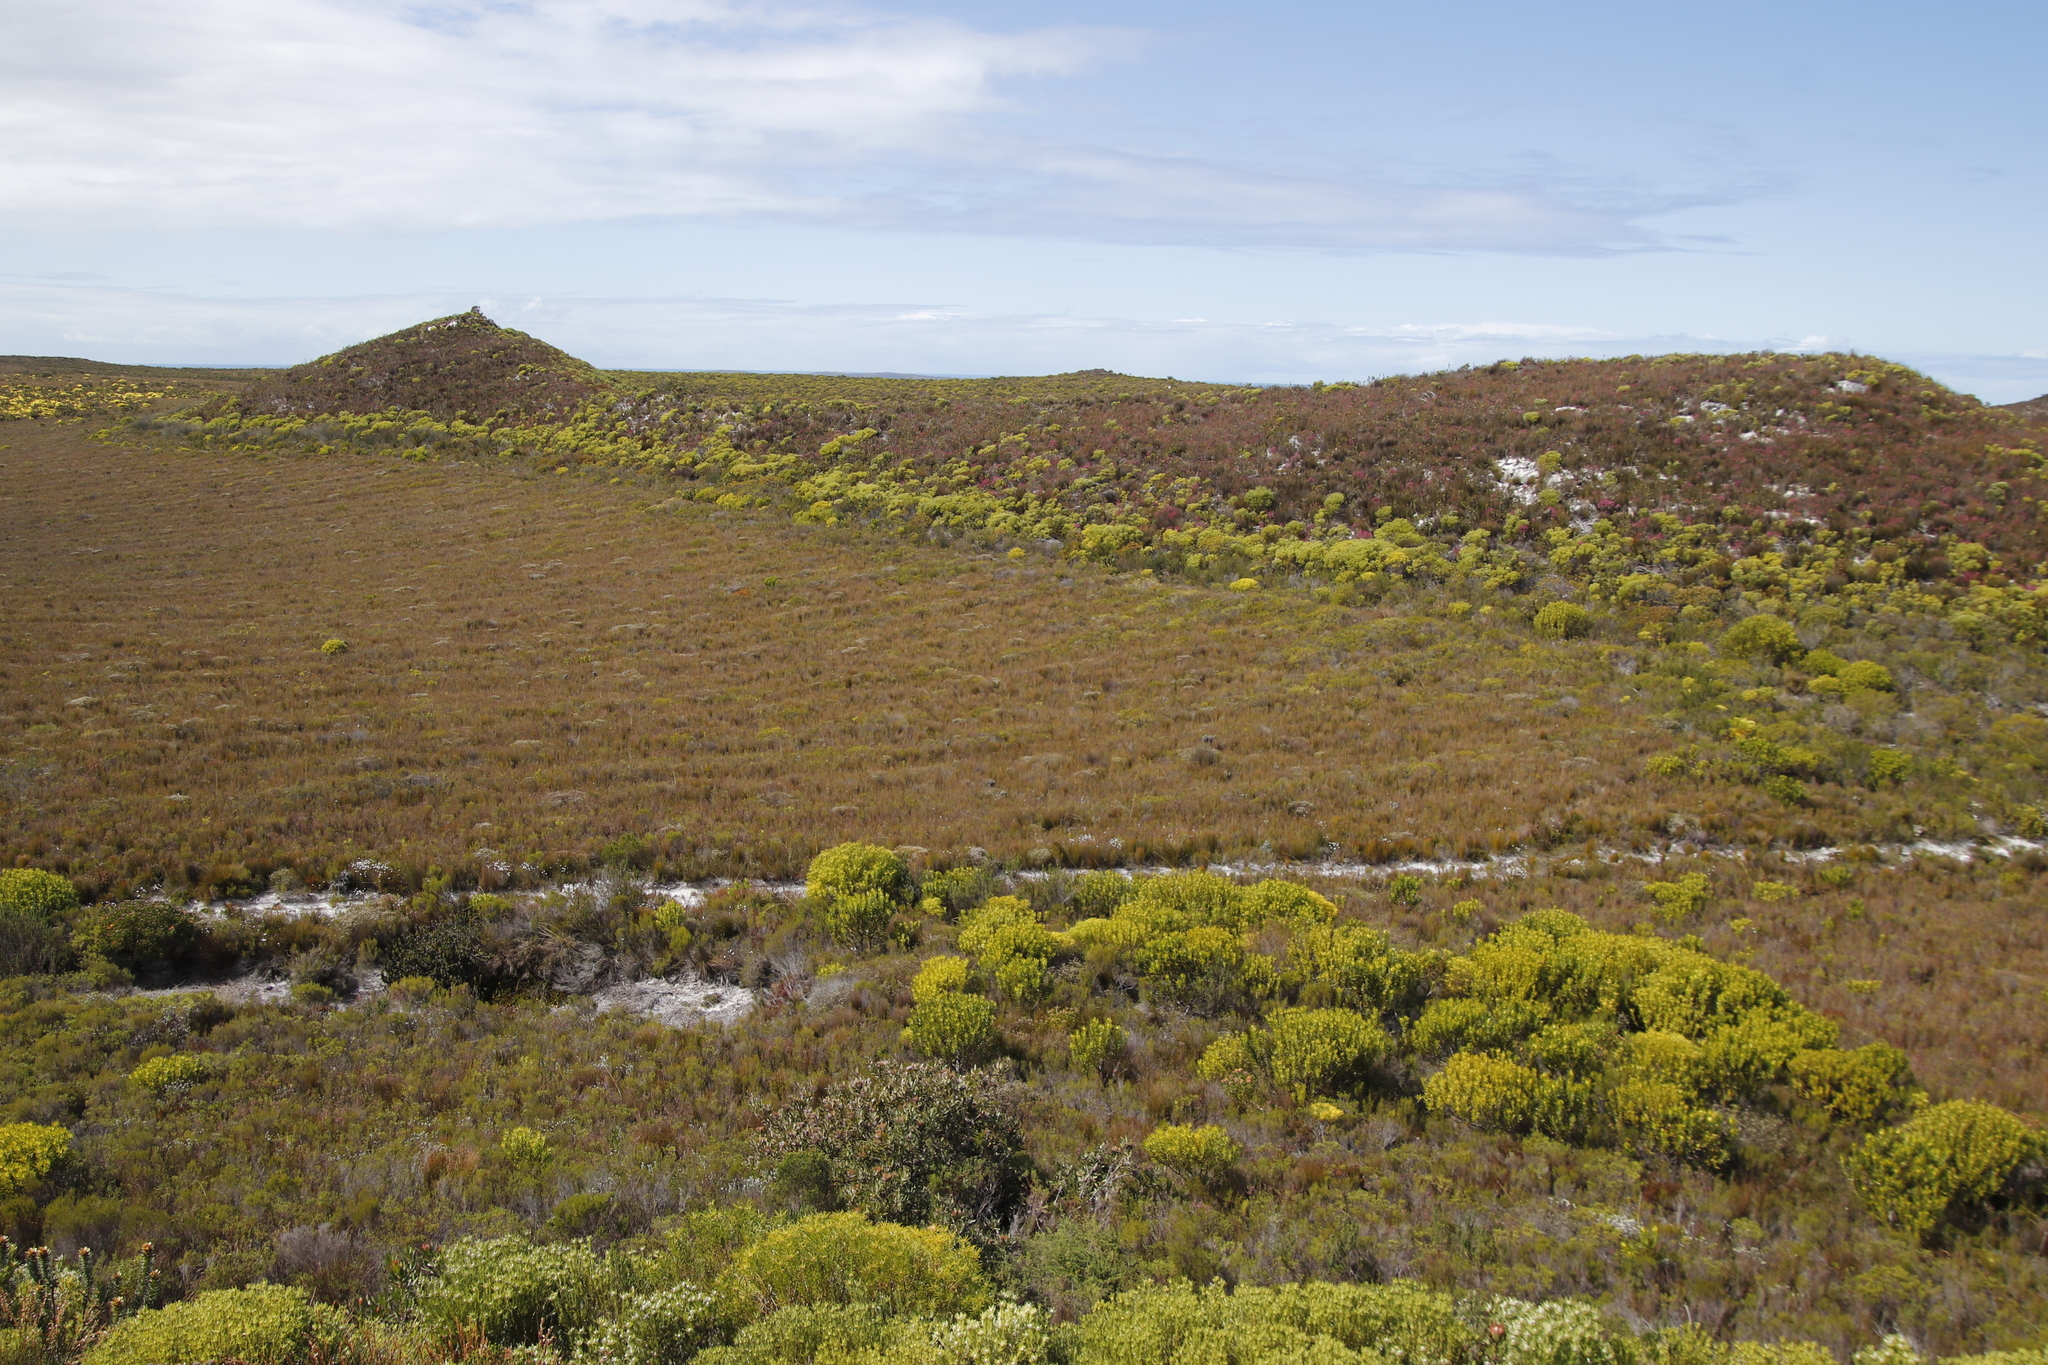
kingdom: Plantae
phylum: Tracheophyta
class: Magnoliopsida
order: Proteales
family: Proteaceae
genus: Leucadendron
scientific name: Leucadendron coniferum
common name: Dune conebush
